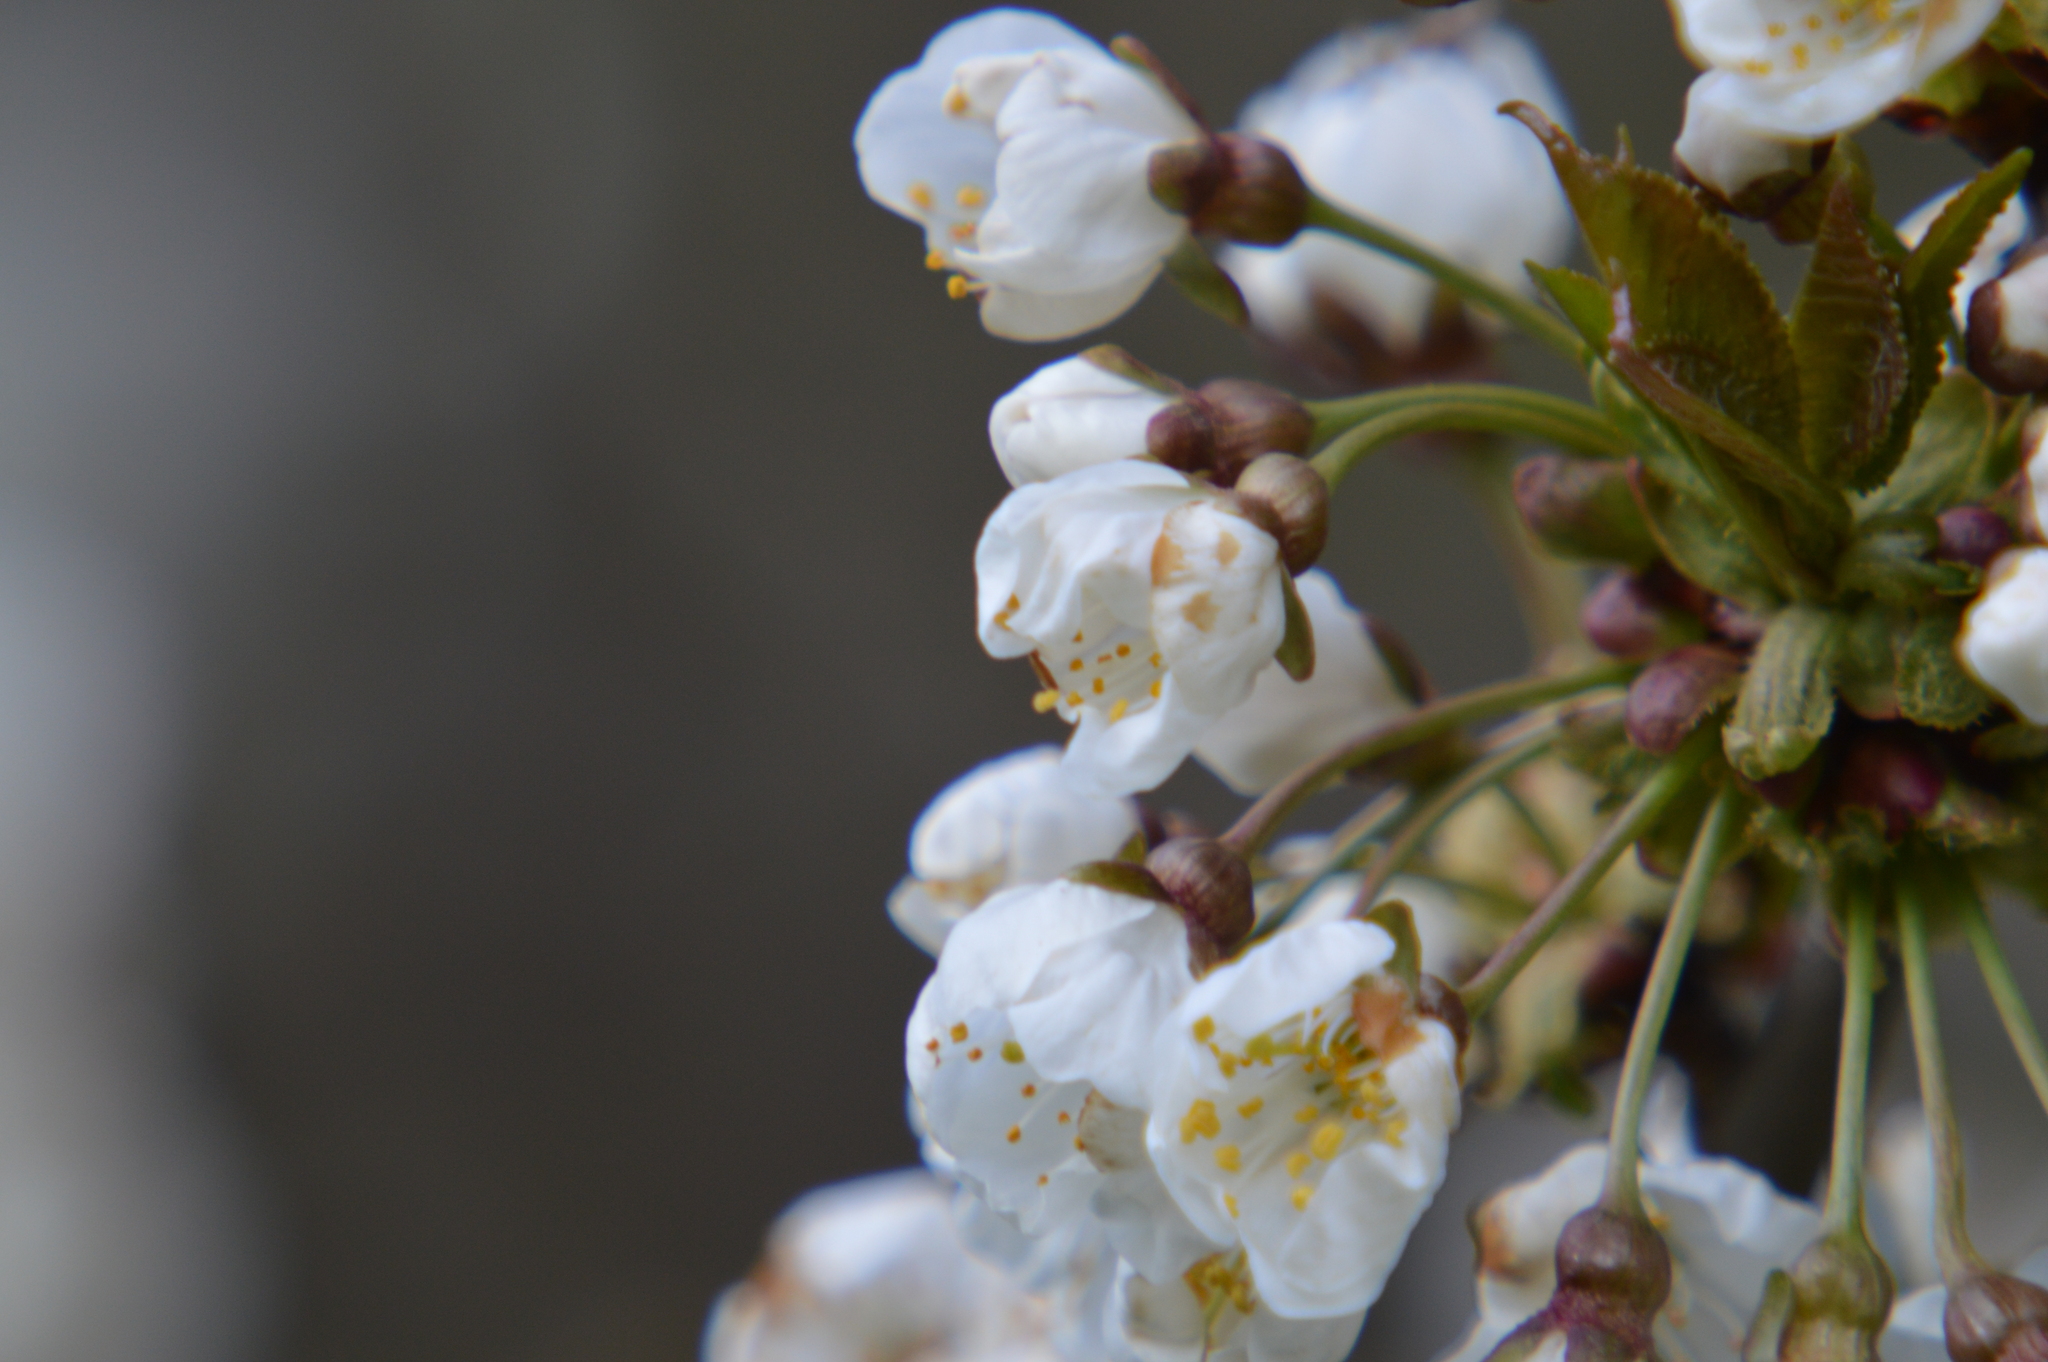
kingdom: Plantae
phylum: Tracheophyta
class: Magnoliopsida
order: Rosales
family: Rosaceae
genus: Prunus
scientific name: Prunus avium
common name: Sweet cherry
